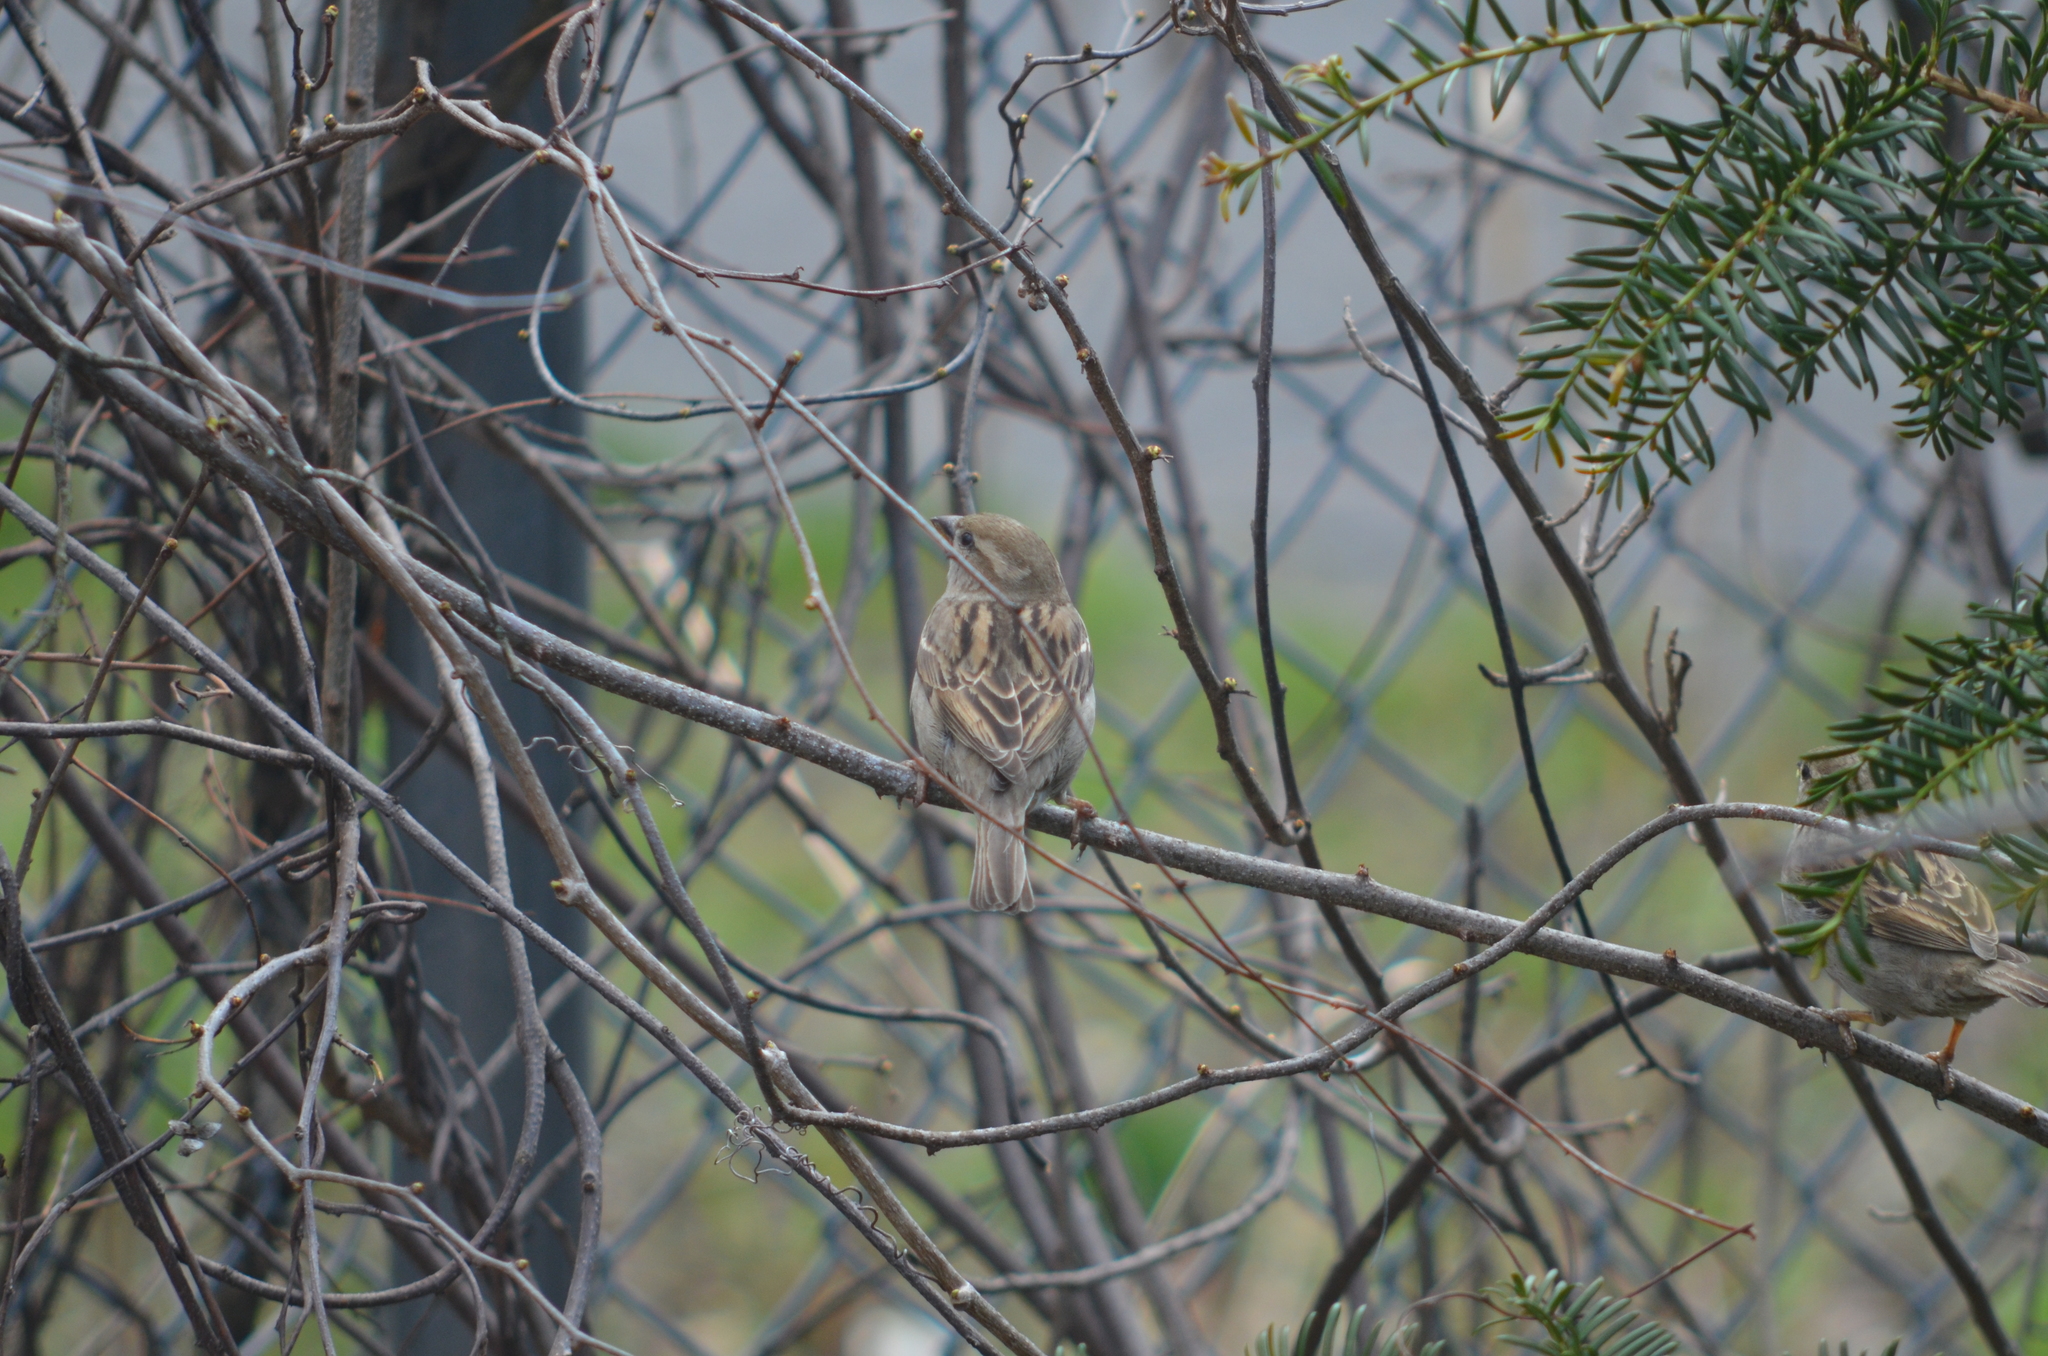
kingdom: Animalia
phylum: Chordata
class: Aves
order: Passeriformes
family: Passeridae
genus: Passer
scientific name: Passer domesticus
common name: House sparrow
